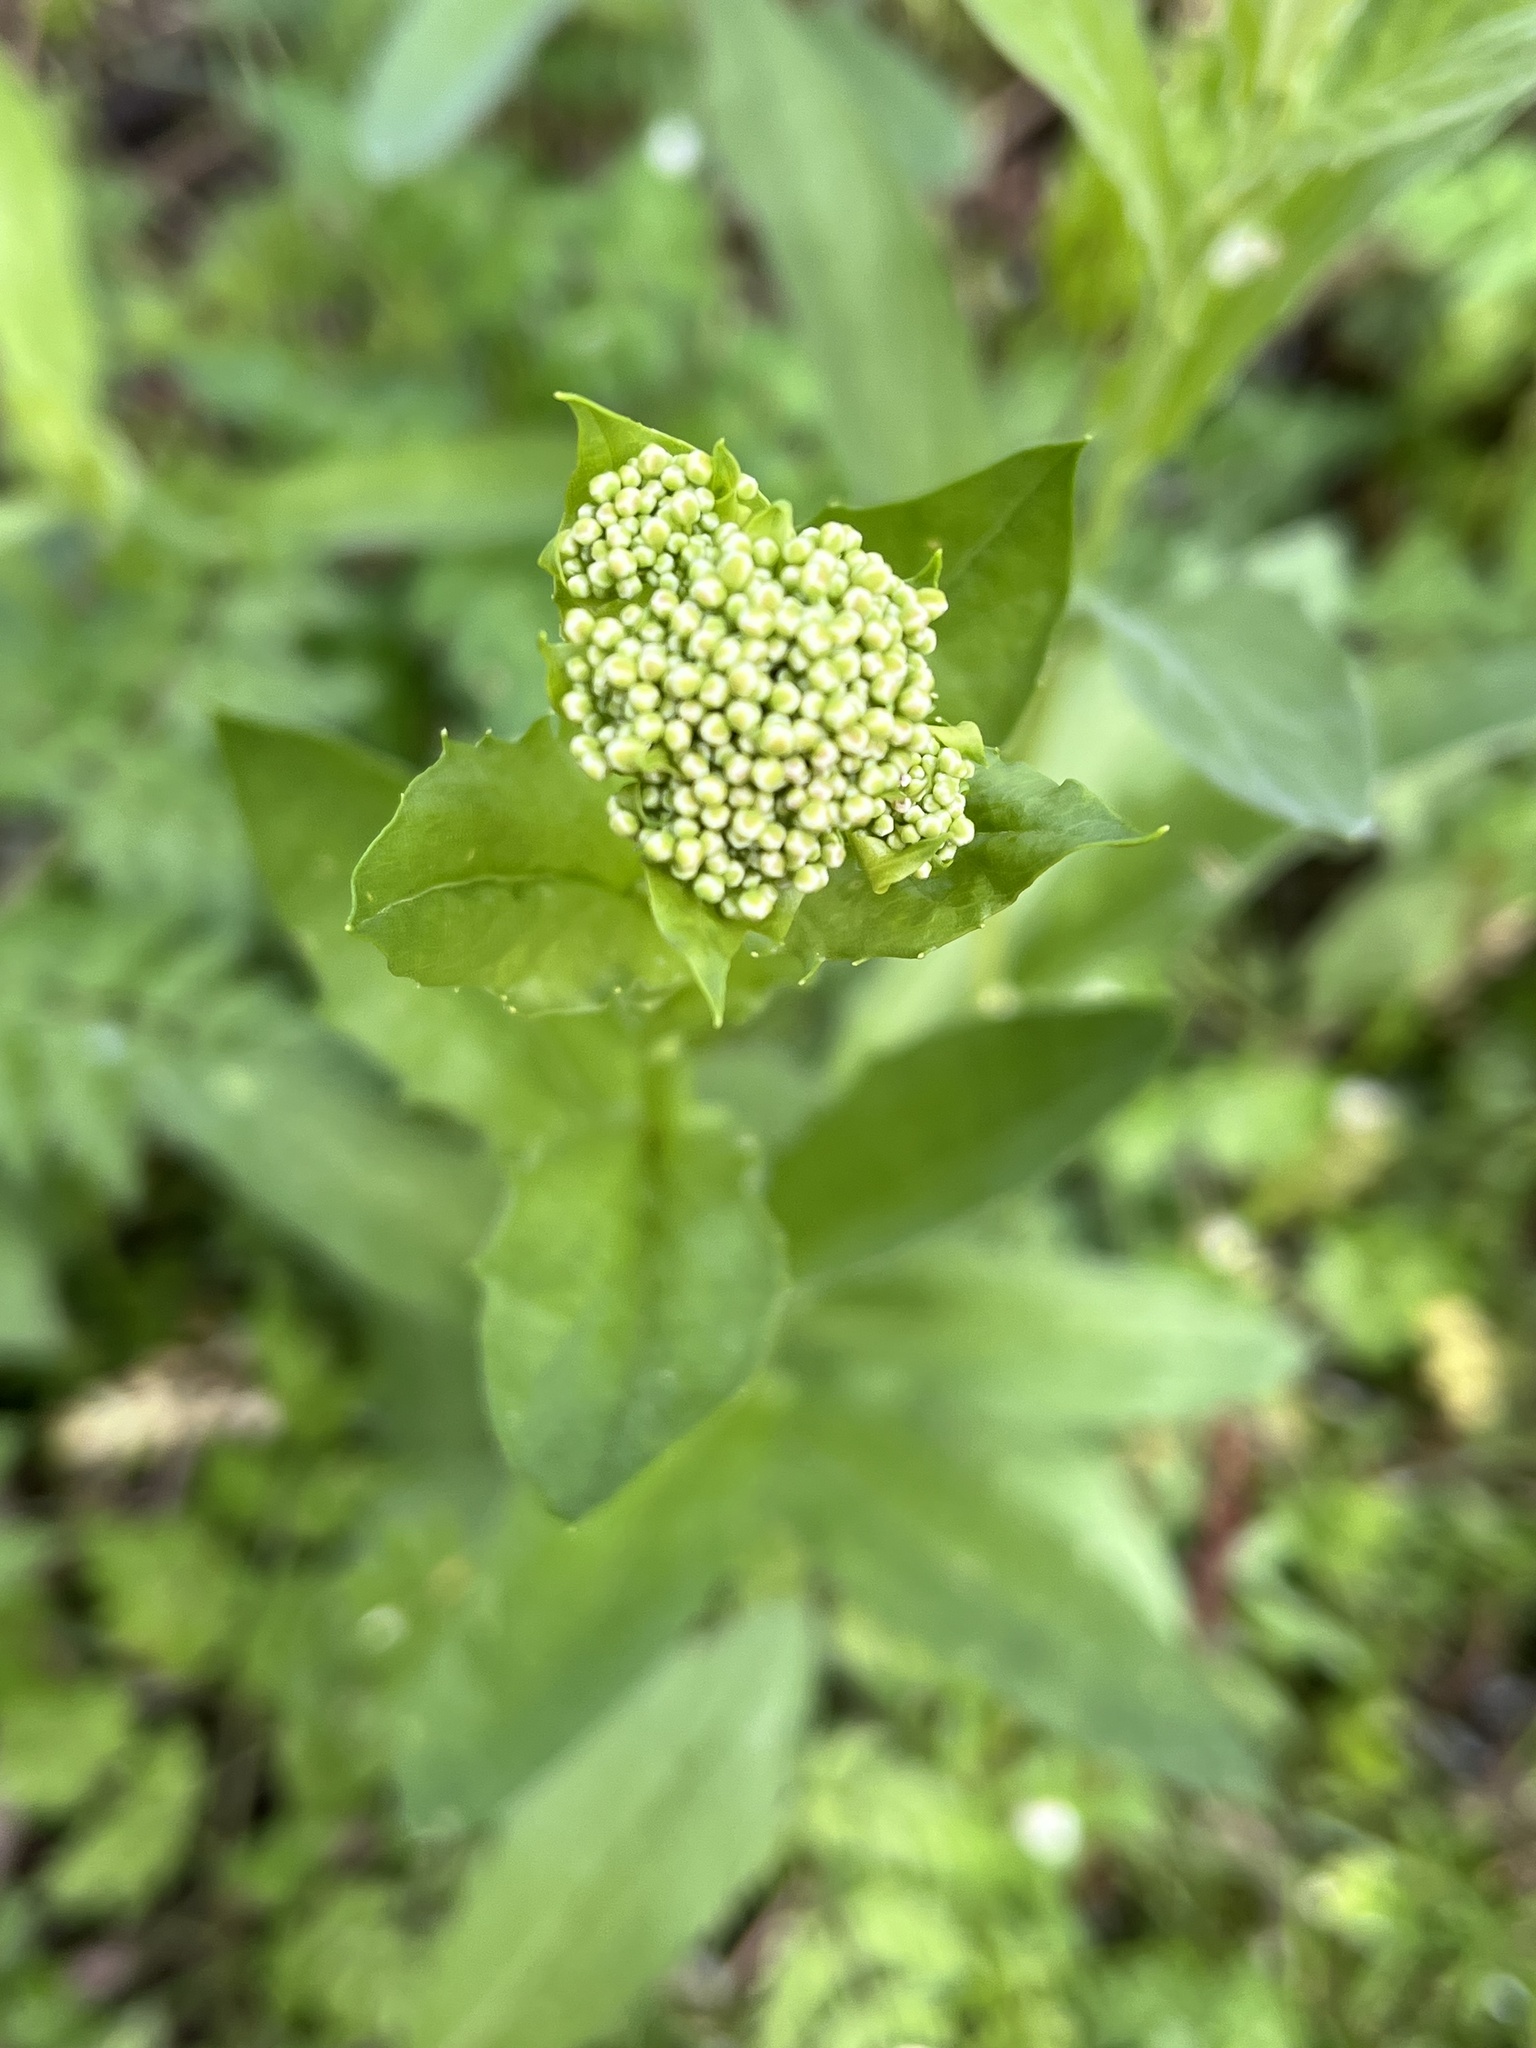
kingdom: Plantae
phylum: Tracheophyta
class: Magnoliopsida
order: Brassicales
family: Brassicaceae
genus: Lepidium
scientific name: Lepidium draba
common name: Hoary cress
